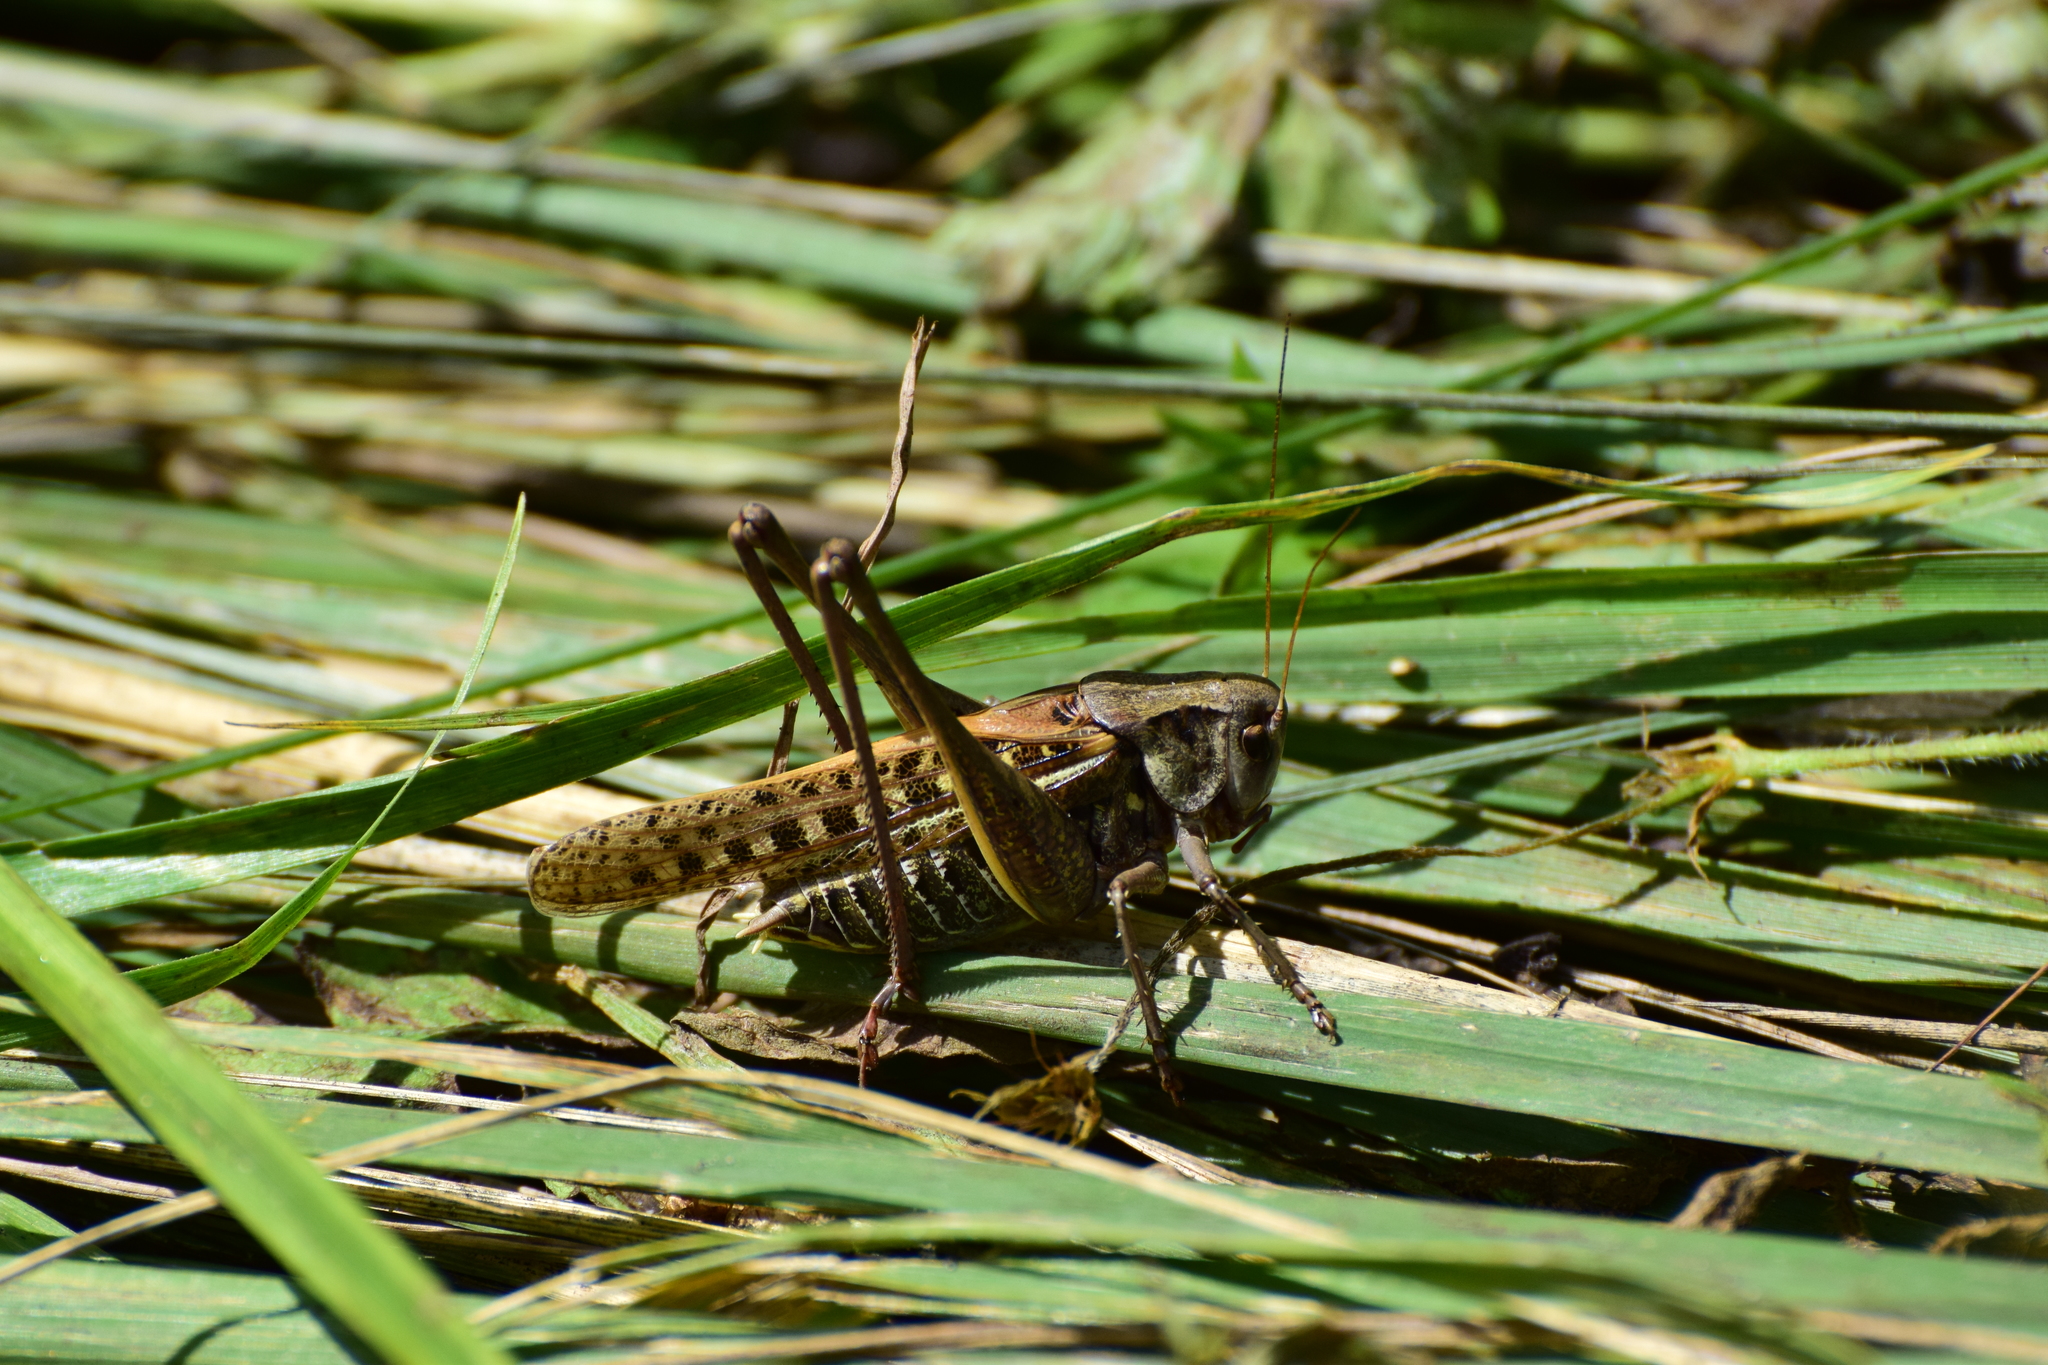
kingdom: Animalia
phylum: Arthropoda
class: Insecta
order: Orthoptera
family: Tettigoniidae
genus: Decticus
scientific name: Decticus verrucivorus
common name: Wart-biter
